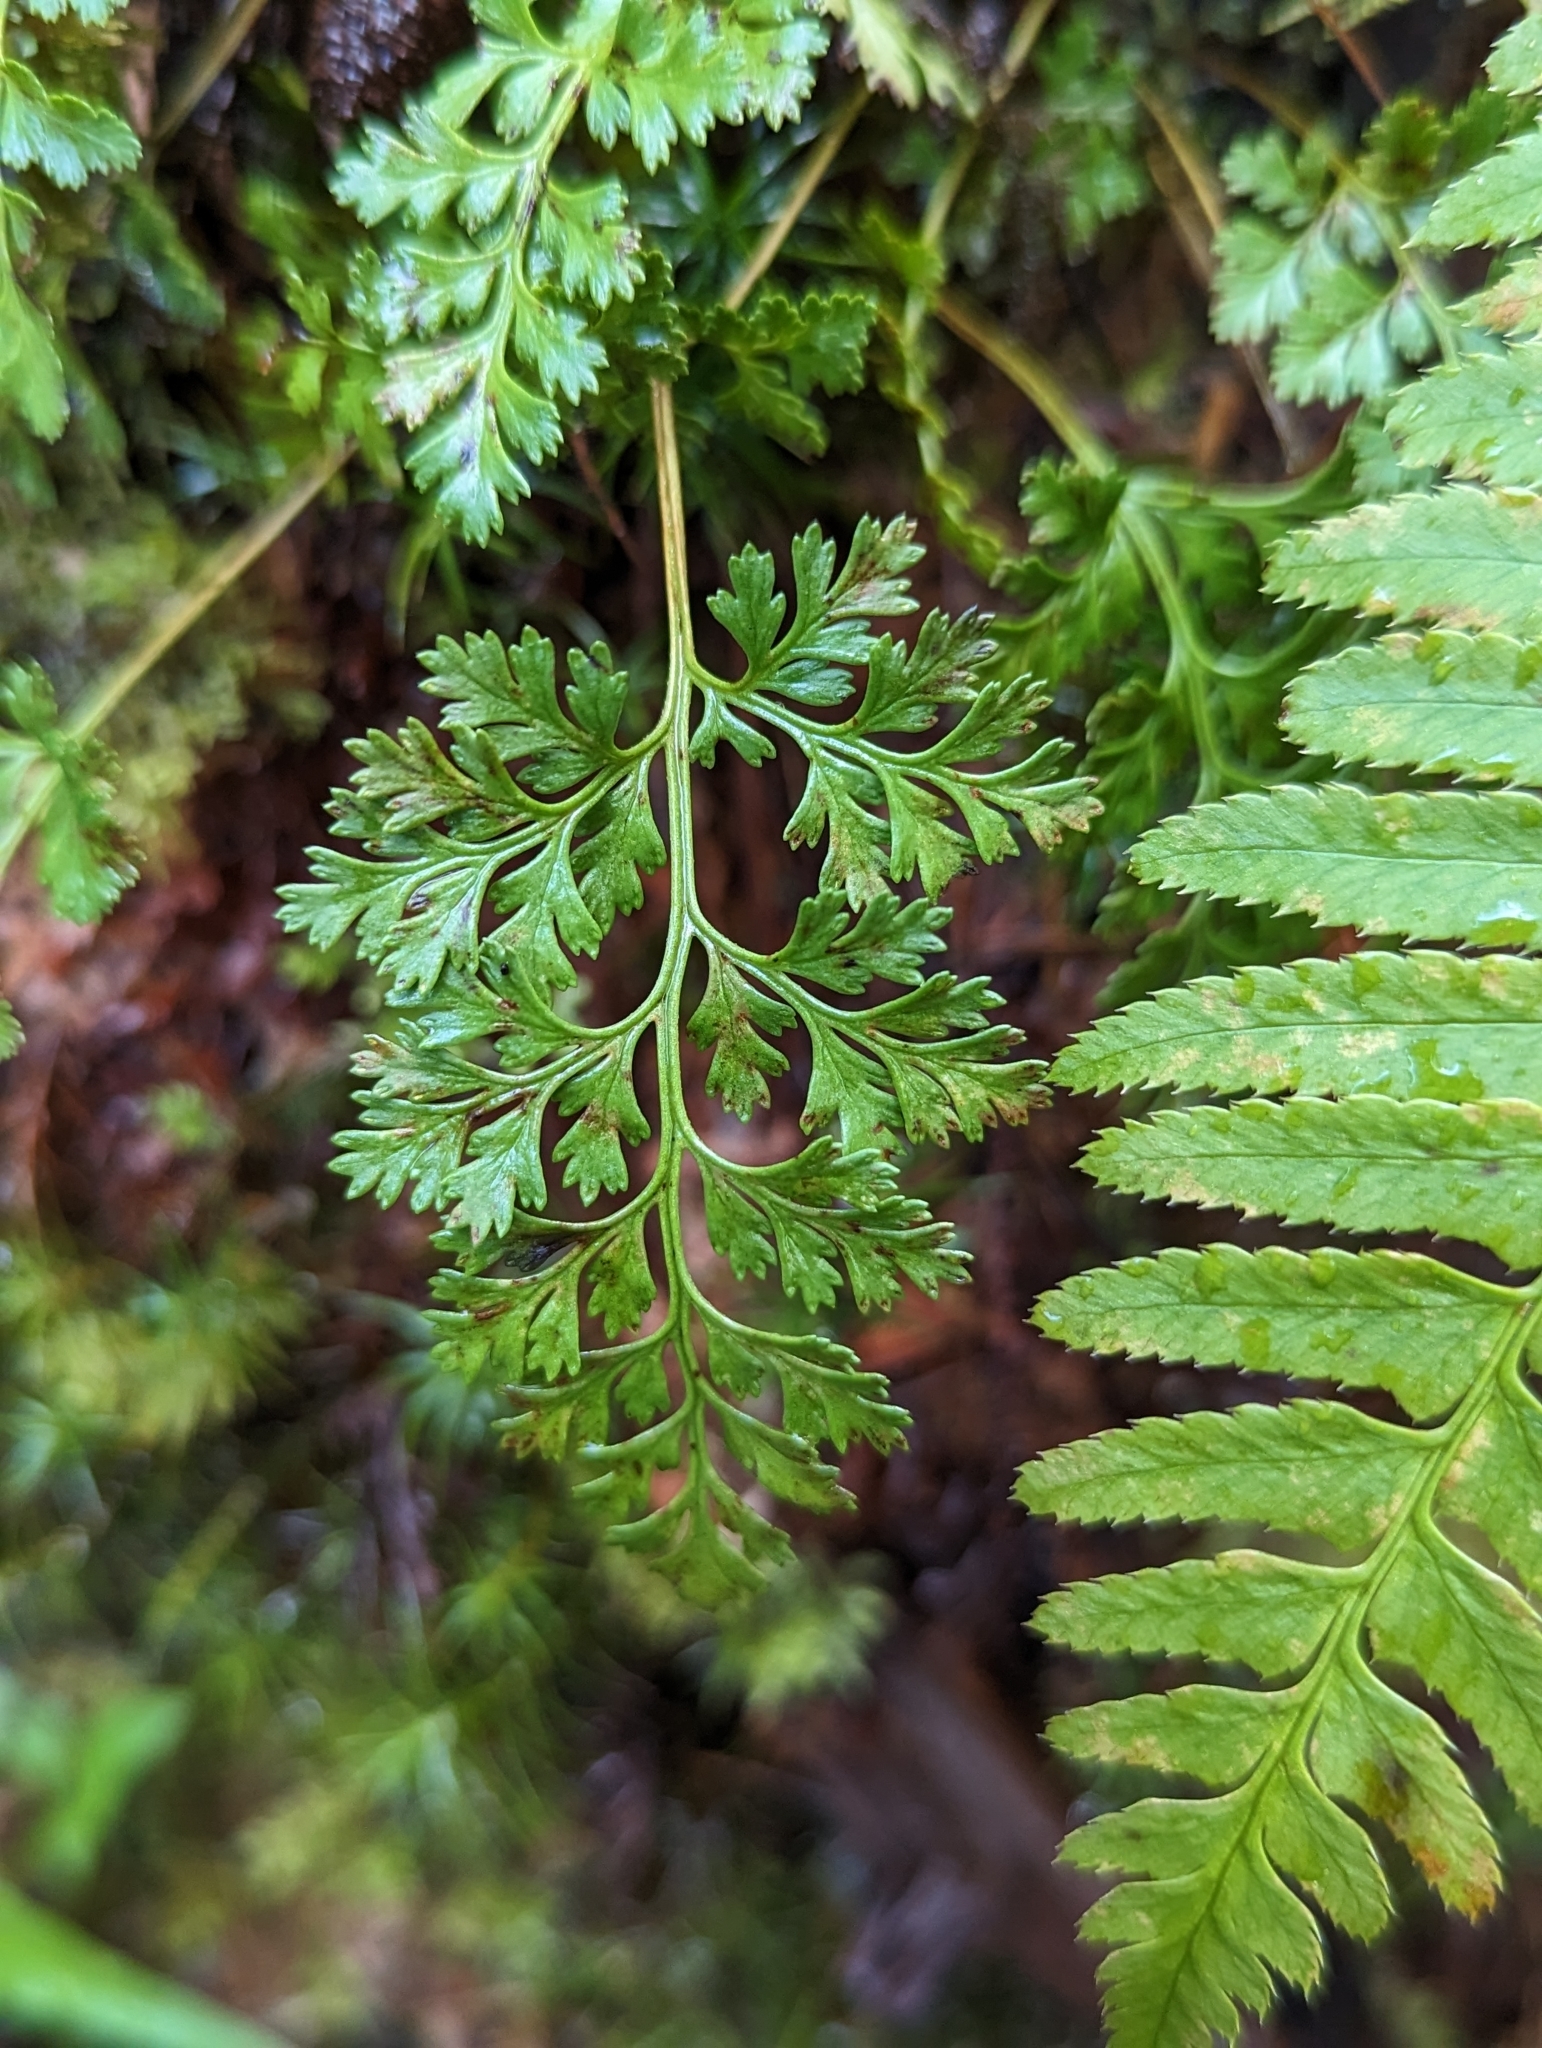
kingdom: Plantae
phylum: Tracheophyta
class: Polypodiopsida
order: Polypodiales
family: Pteridaceae
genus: Cryptogramma
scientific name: Cryptogramma acrostichoides
